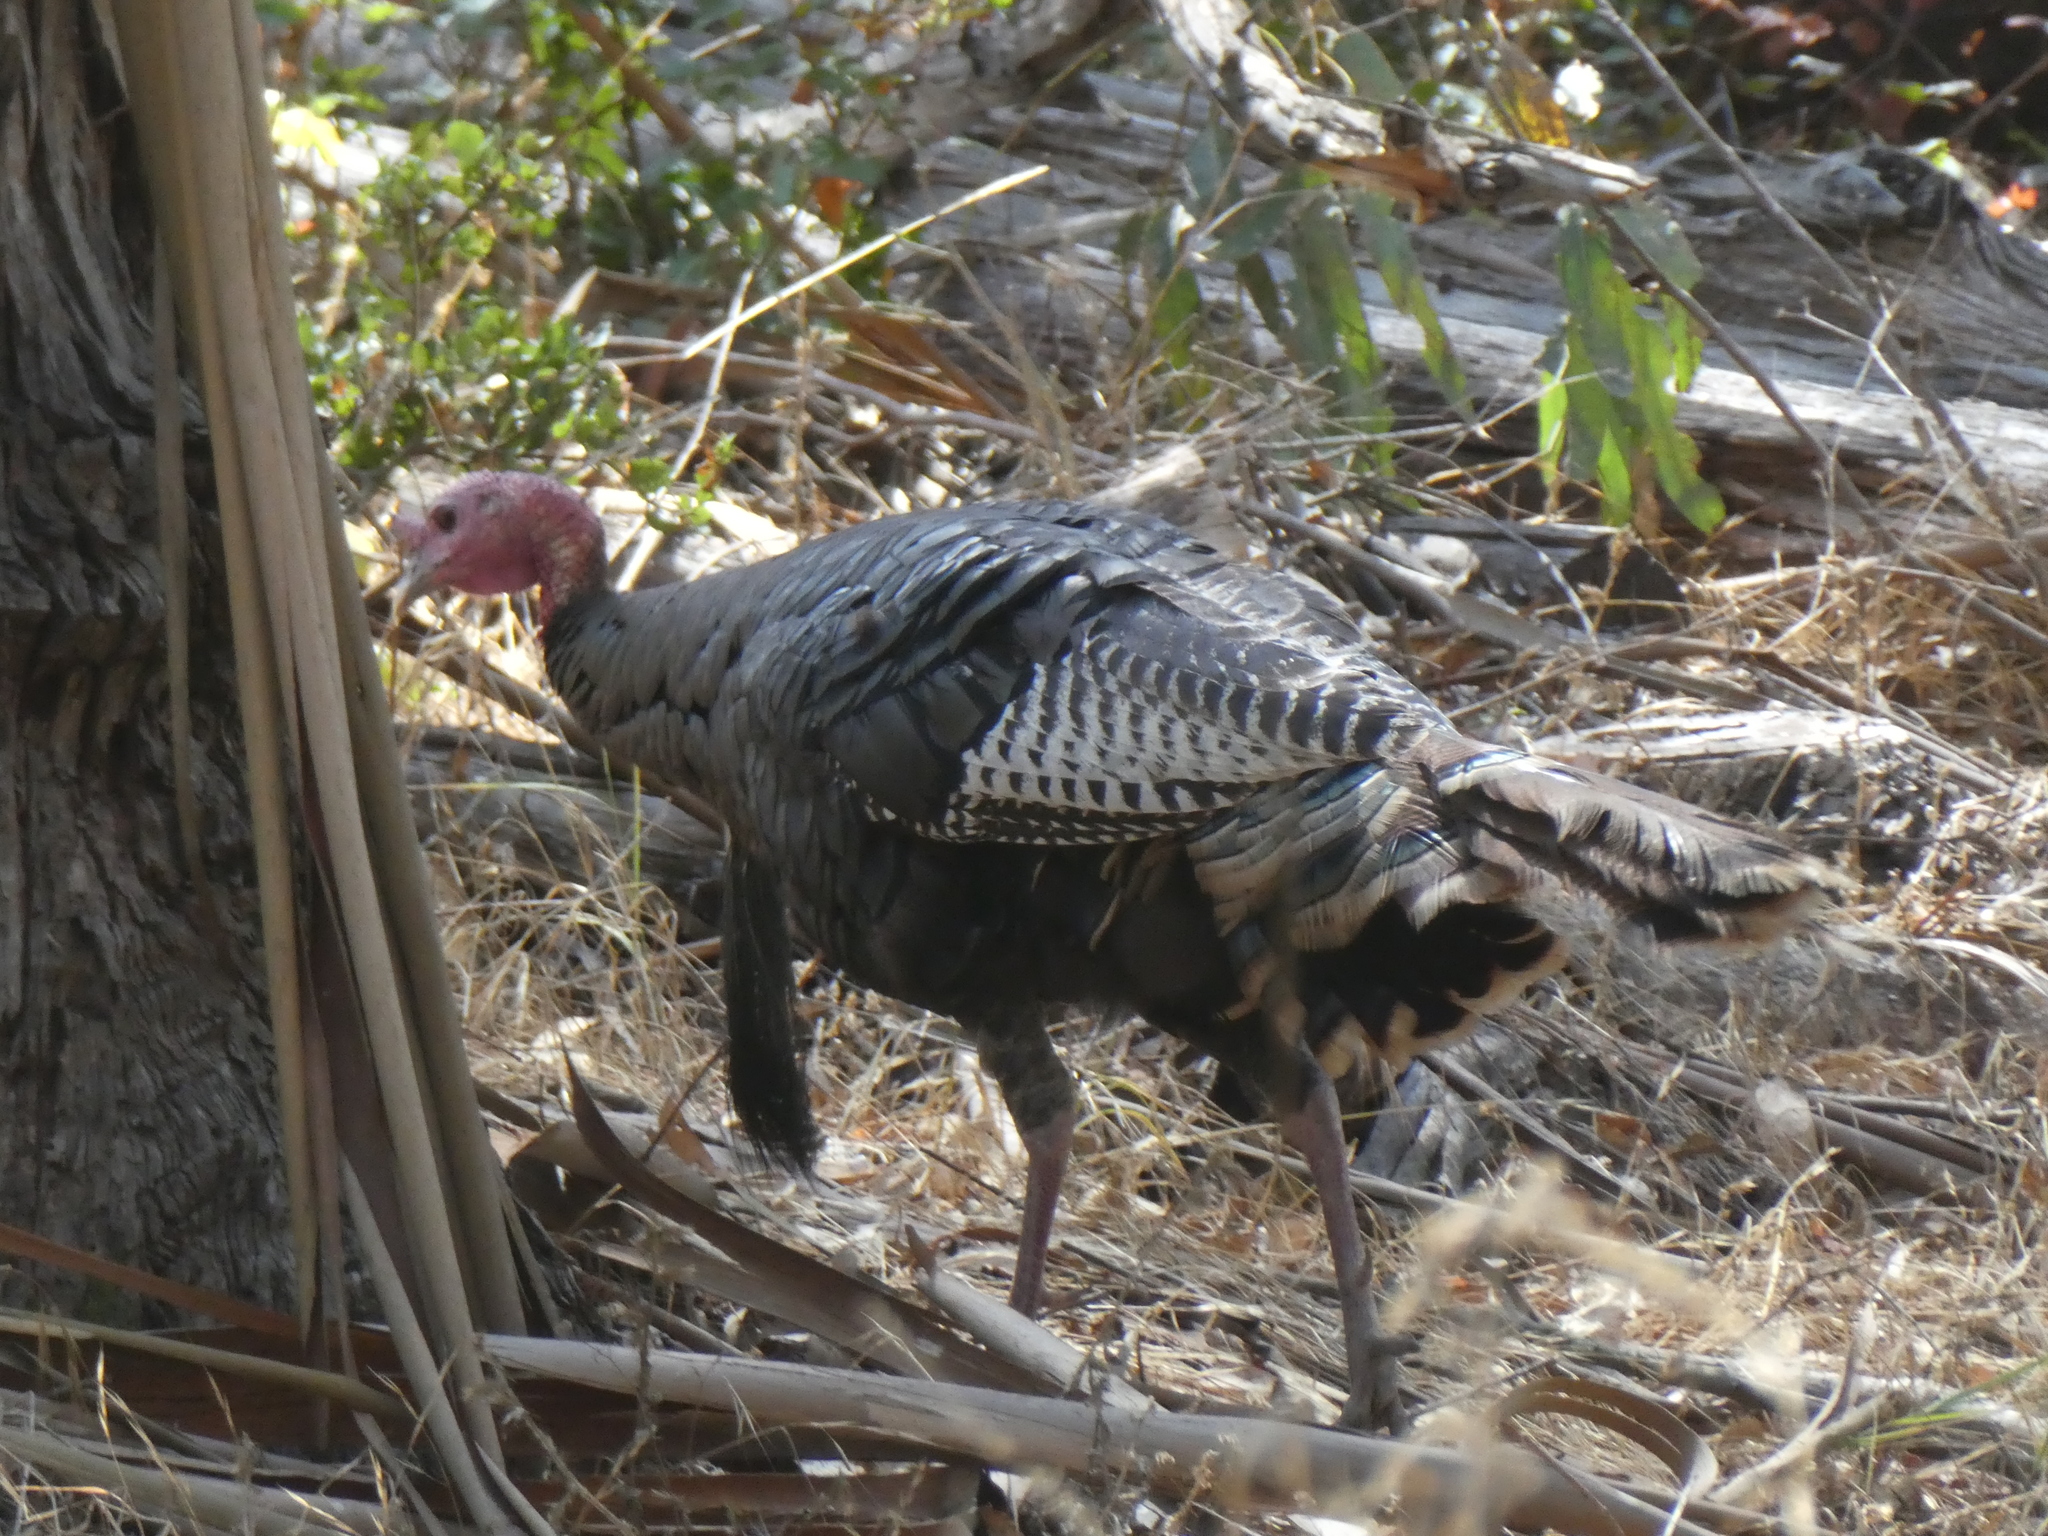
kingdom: Animalia
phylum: Chordata
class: Aves
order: Galliformes
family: Phasianidae
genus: Meleagris
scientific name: Meleagris gallopavo
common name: Wild turkey
